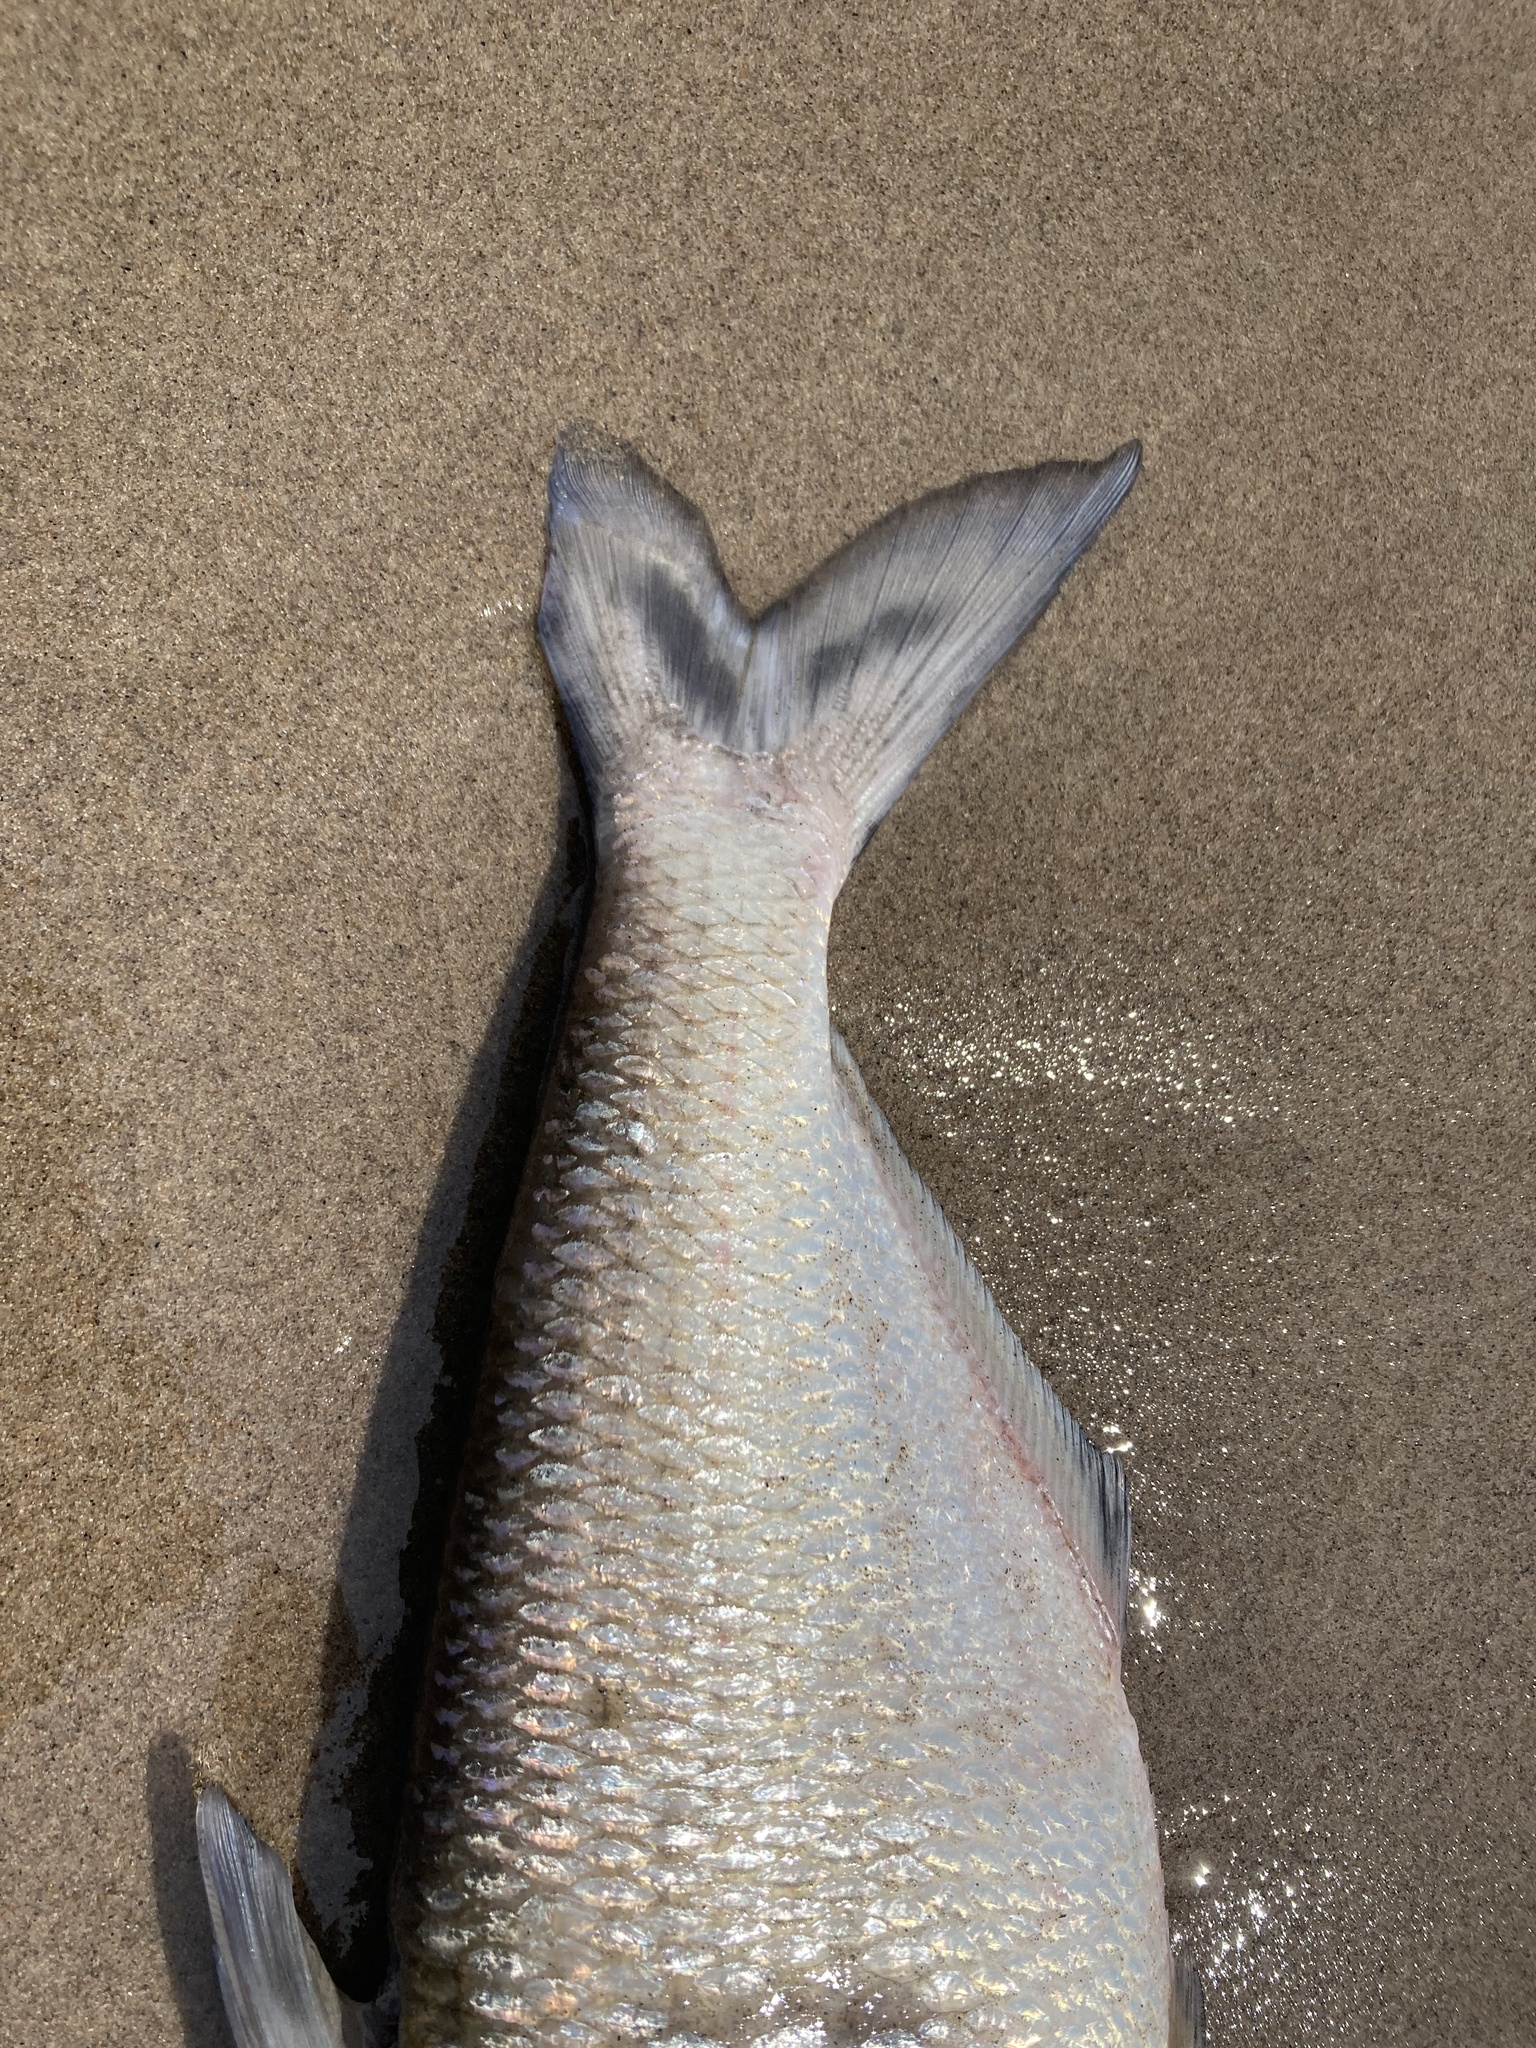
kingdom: Animalia
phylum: Chordata
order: Clupeiformes
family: Clupeidae
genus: Dorosoma
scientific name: Dorosoma cepedianum
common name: Gizzard shad
